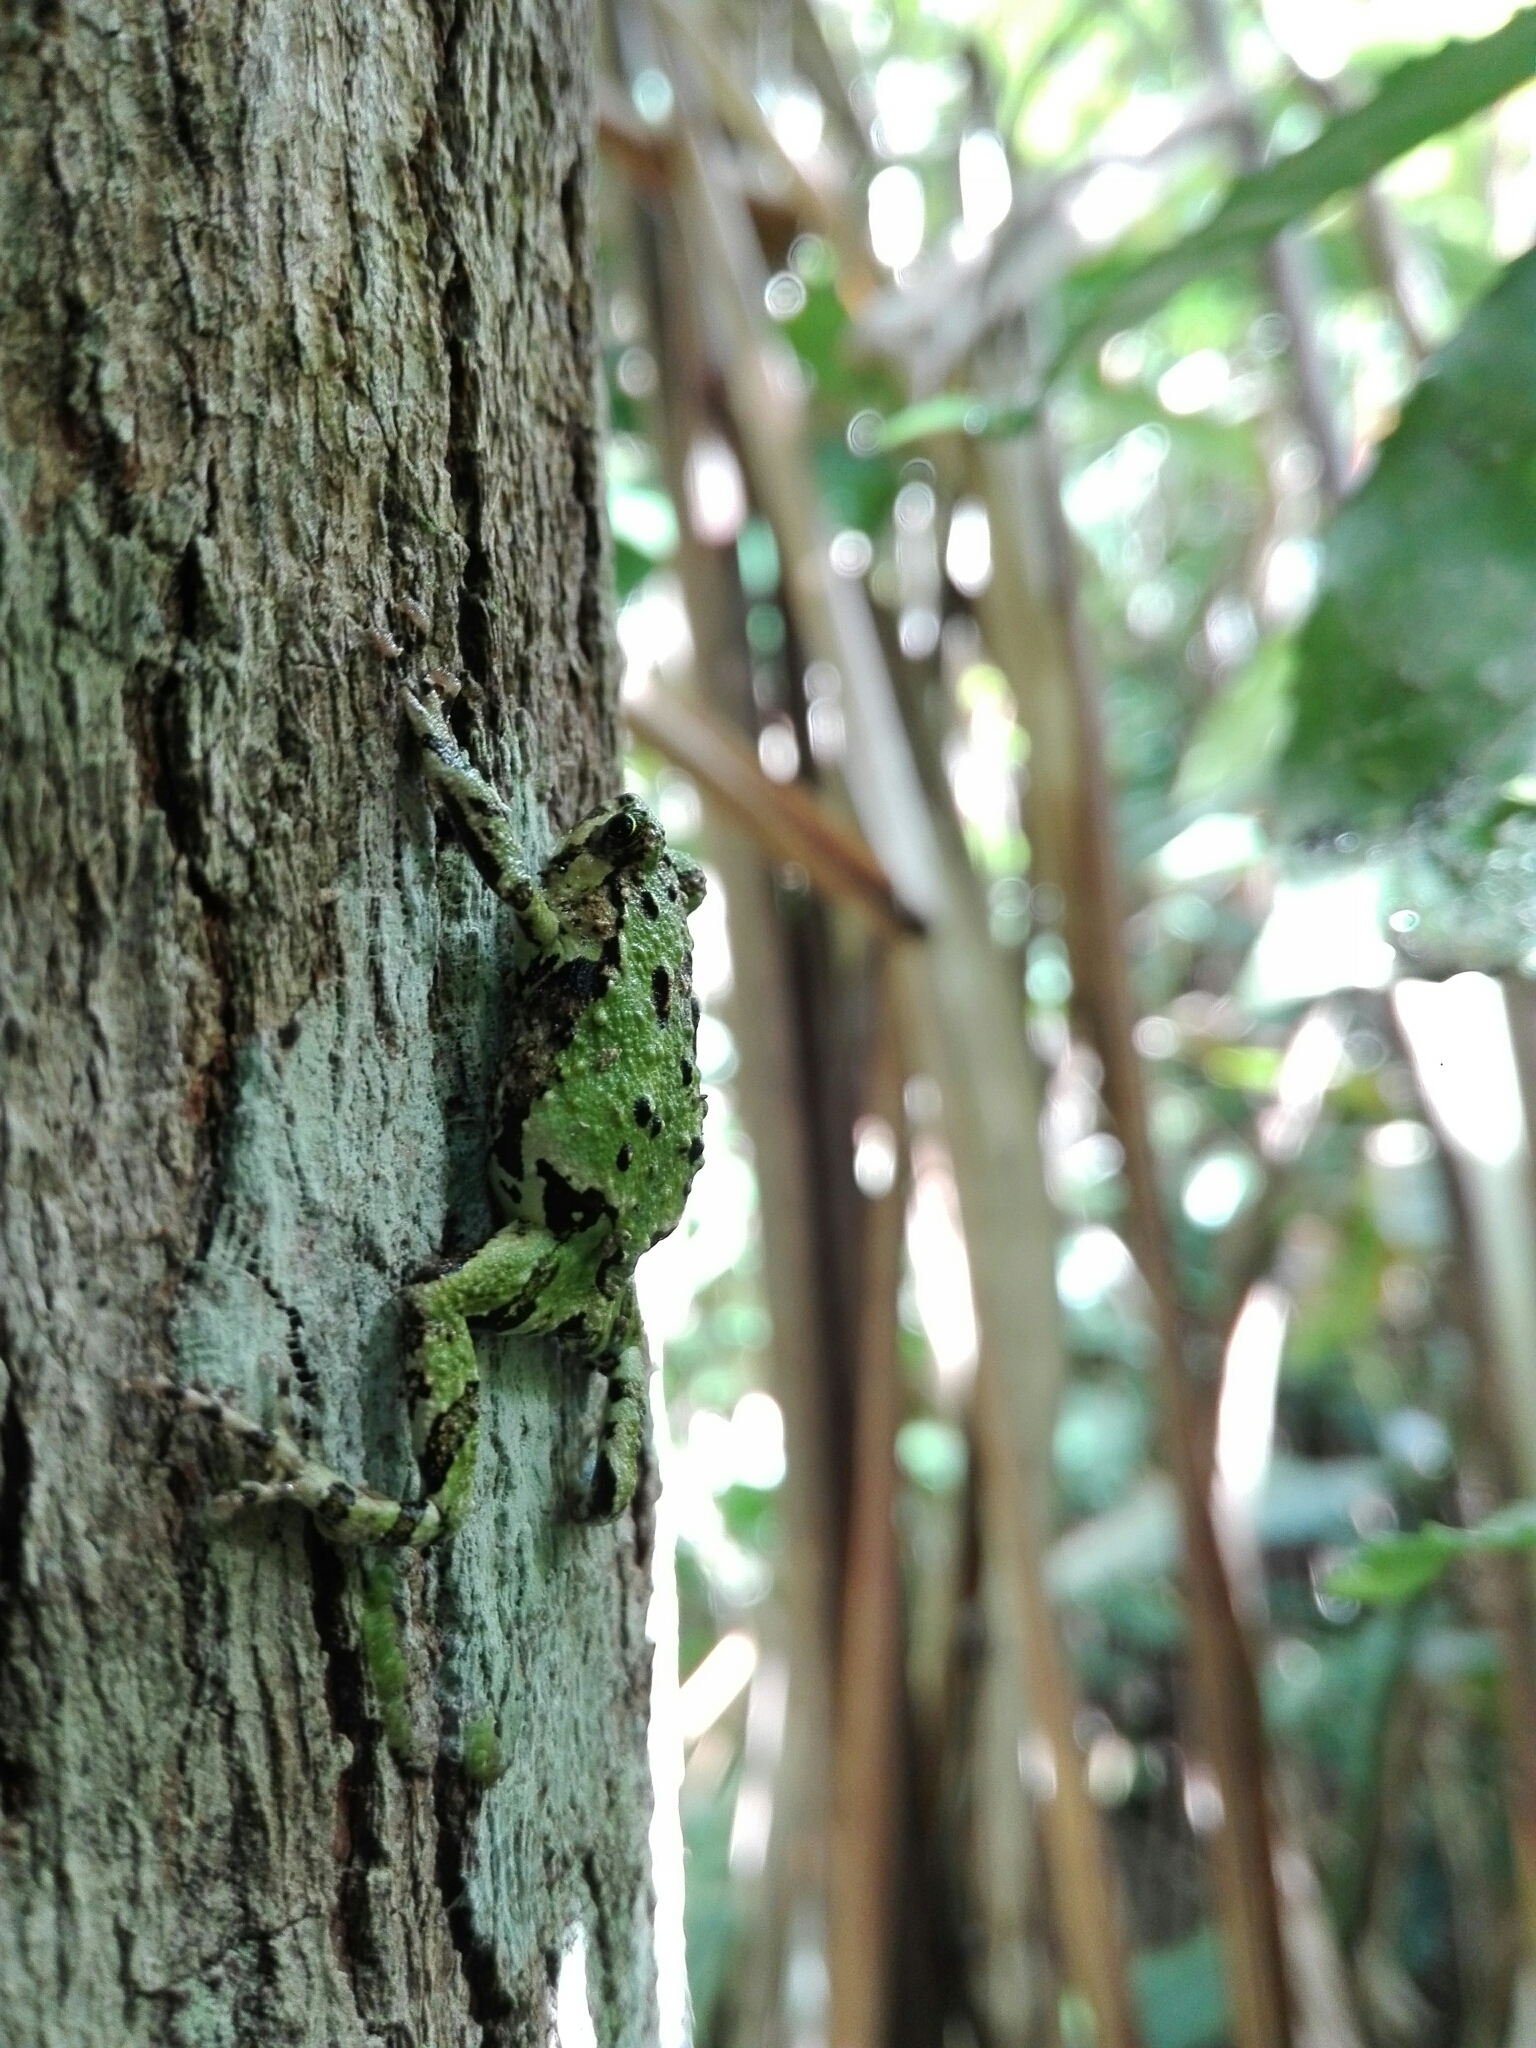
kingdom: Animalia
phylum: Chordata
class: Amphibia
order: Anura
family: Microhylidae
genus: Scaphiophryne
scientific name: Scaphiophryne marmorata
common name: Marbled rain frog
